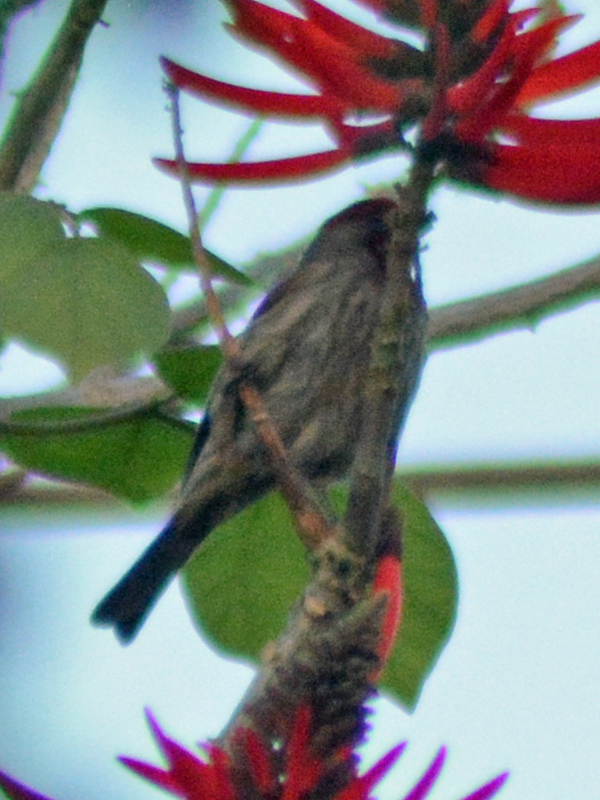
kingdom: Animalia
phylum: Chordata
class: Aves
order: Passeriformes
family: Fringillidae
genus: Haemorhous
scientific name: Haemorhous mexicanus
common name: House finch
